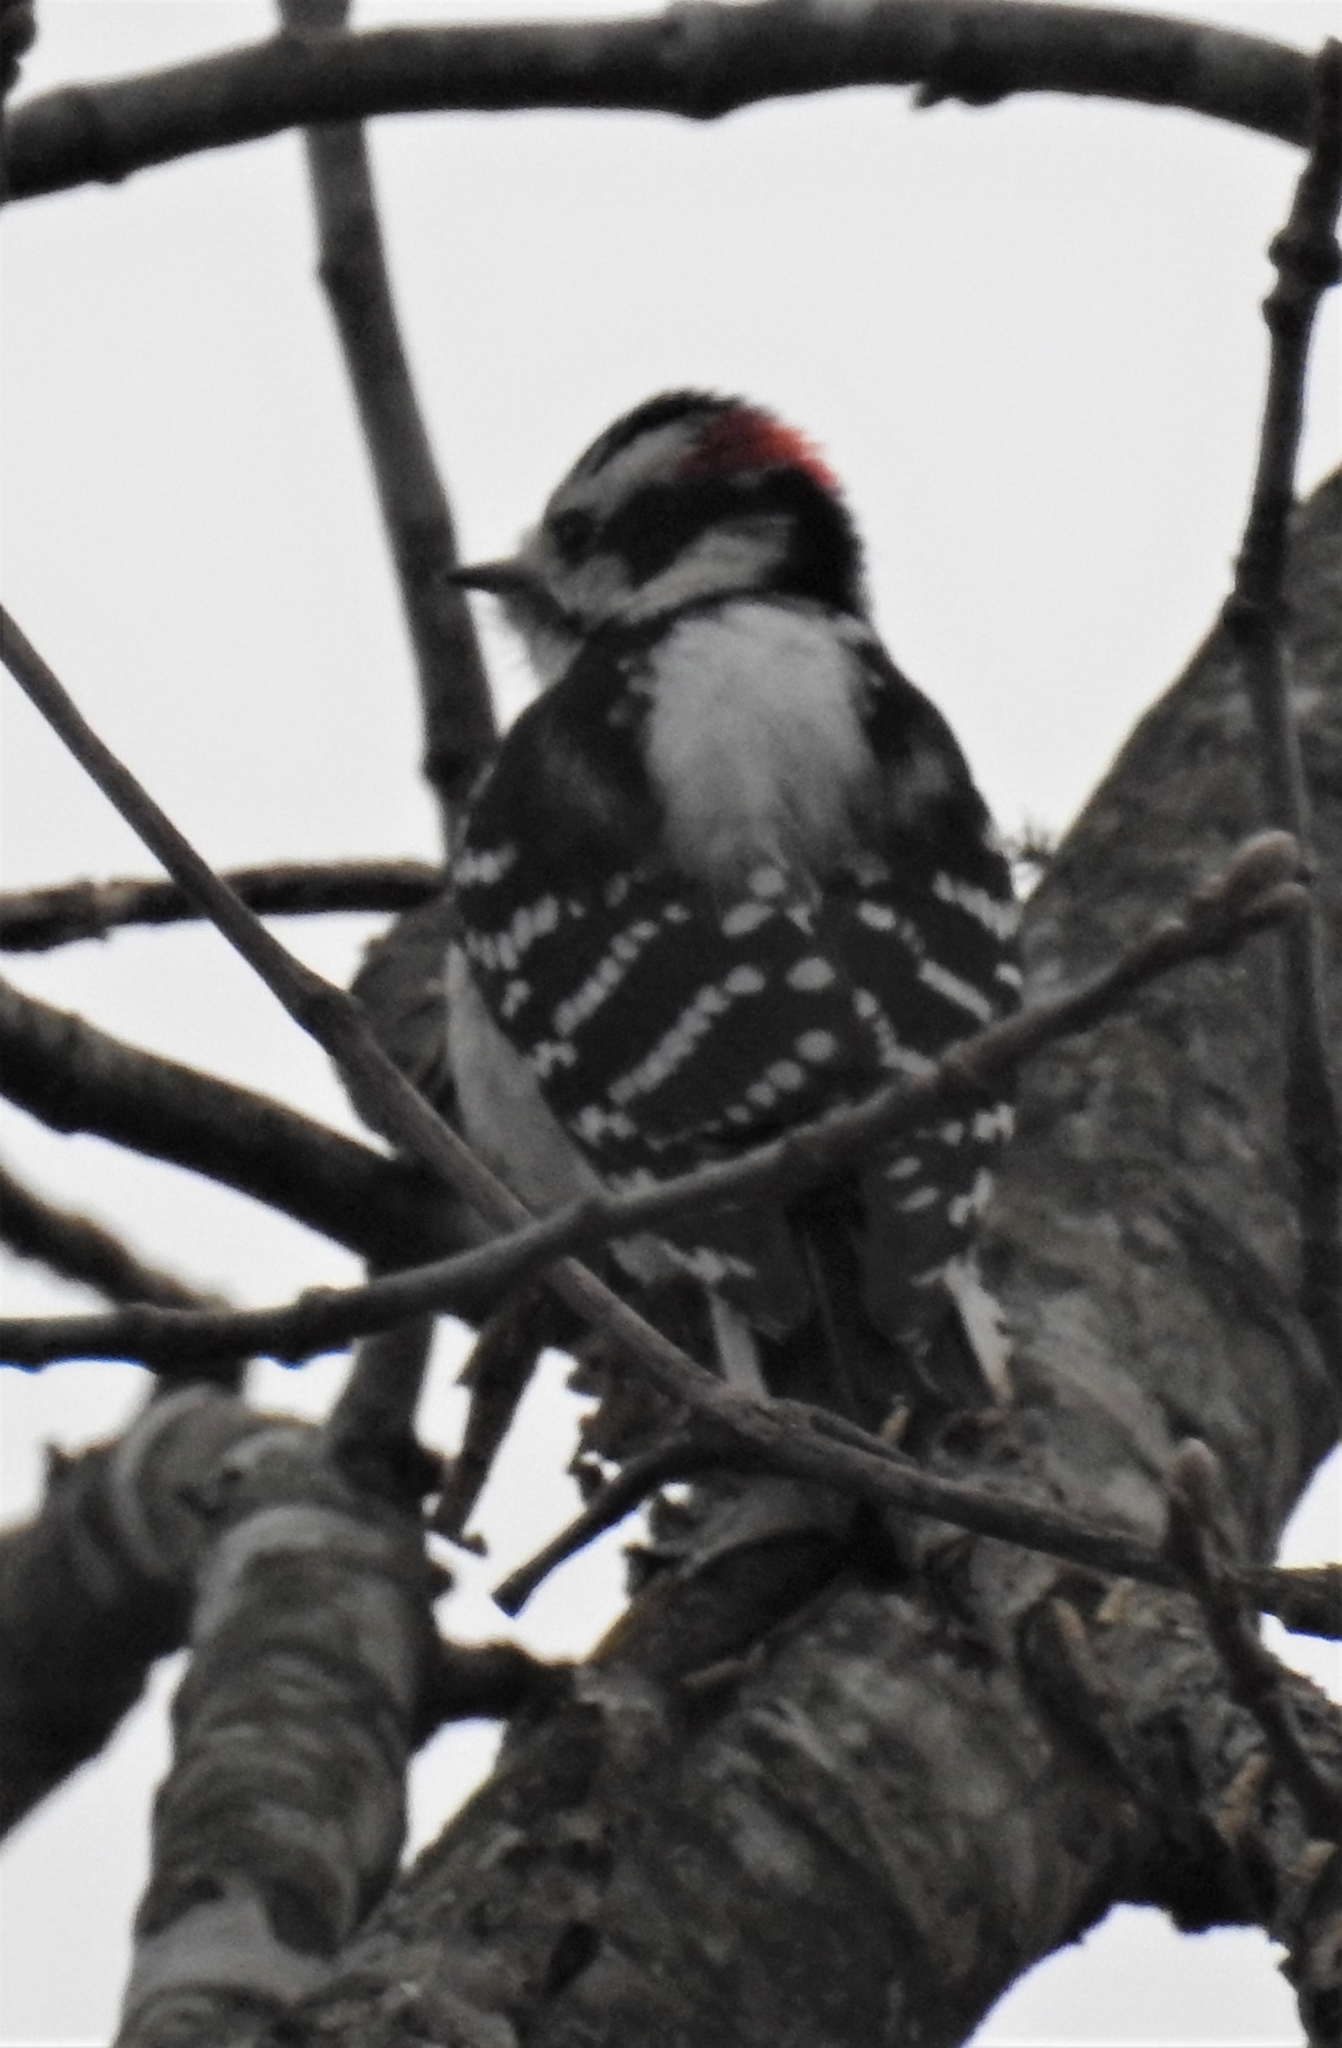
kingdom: Animalia
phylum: Chordata
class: Aves
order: Piciformes
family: Picidae
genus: Dryobates
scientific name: Dryobates pubescens
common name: Downy woodpecker
